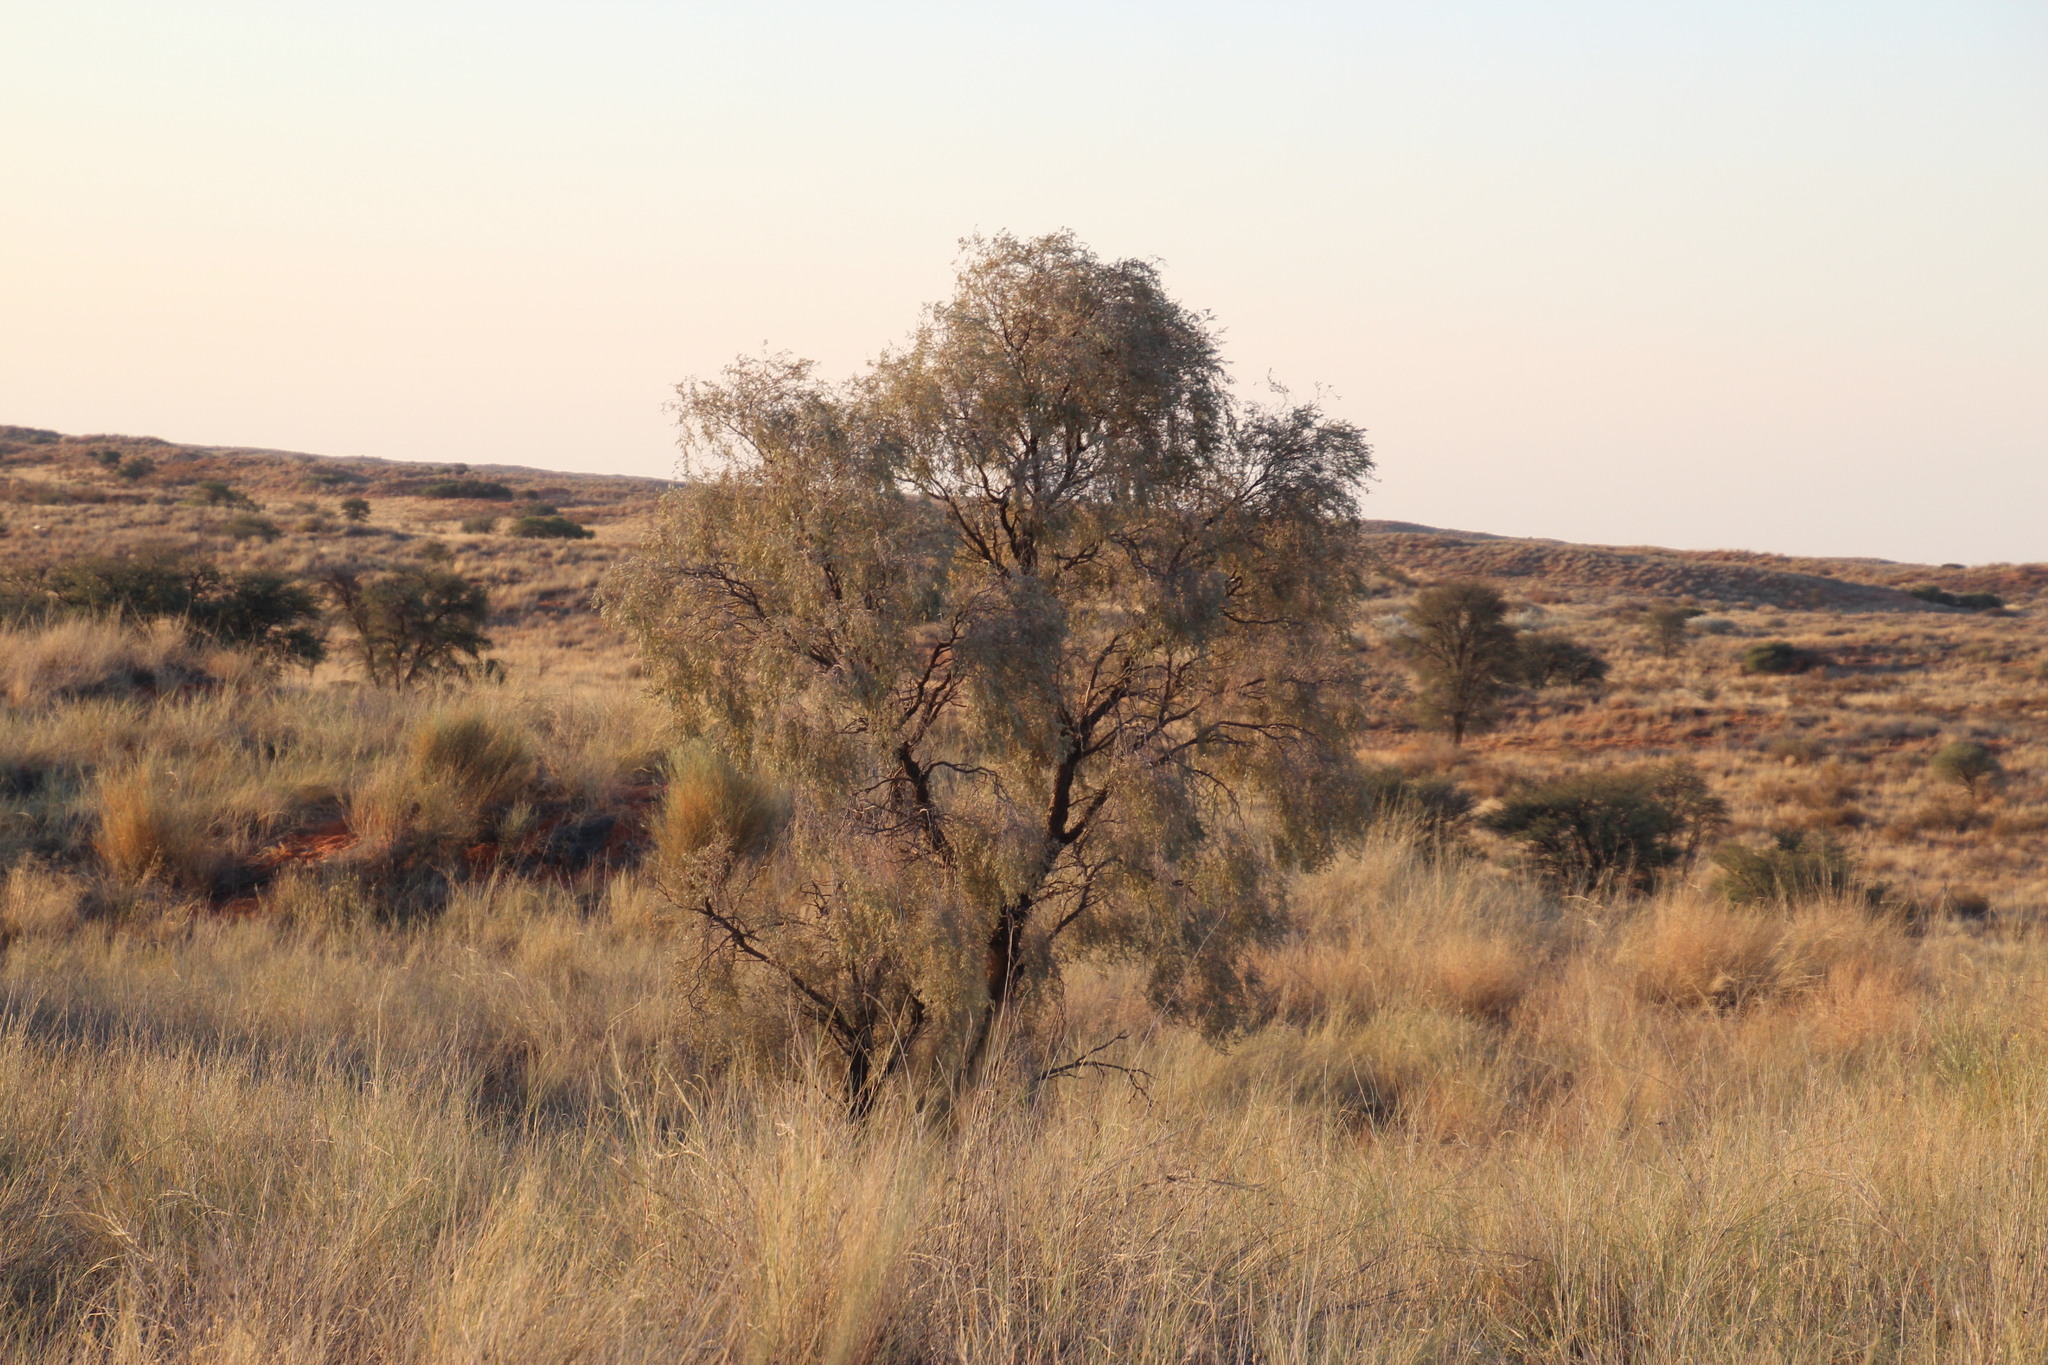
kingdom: Plantae
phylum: Tracheophyta
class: Magnoliopsida
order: Fabales
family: Fabaceae
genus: Vachellia
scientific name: Vachellia haematoxylon
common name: Grey camel thorn
